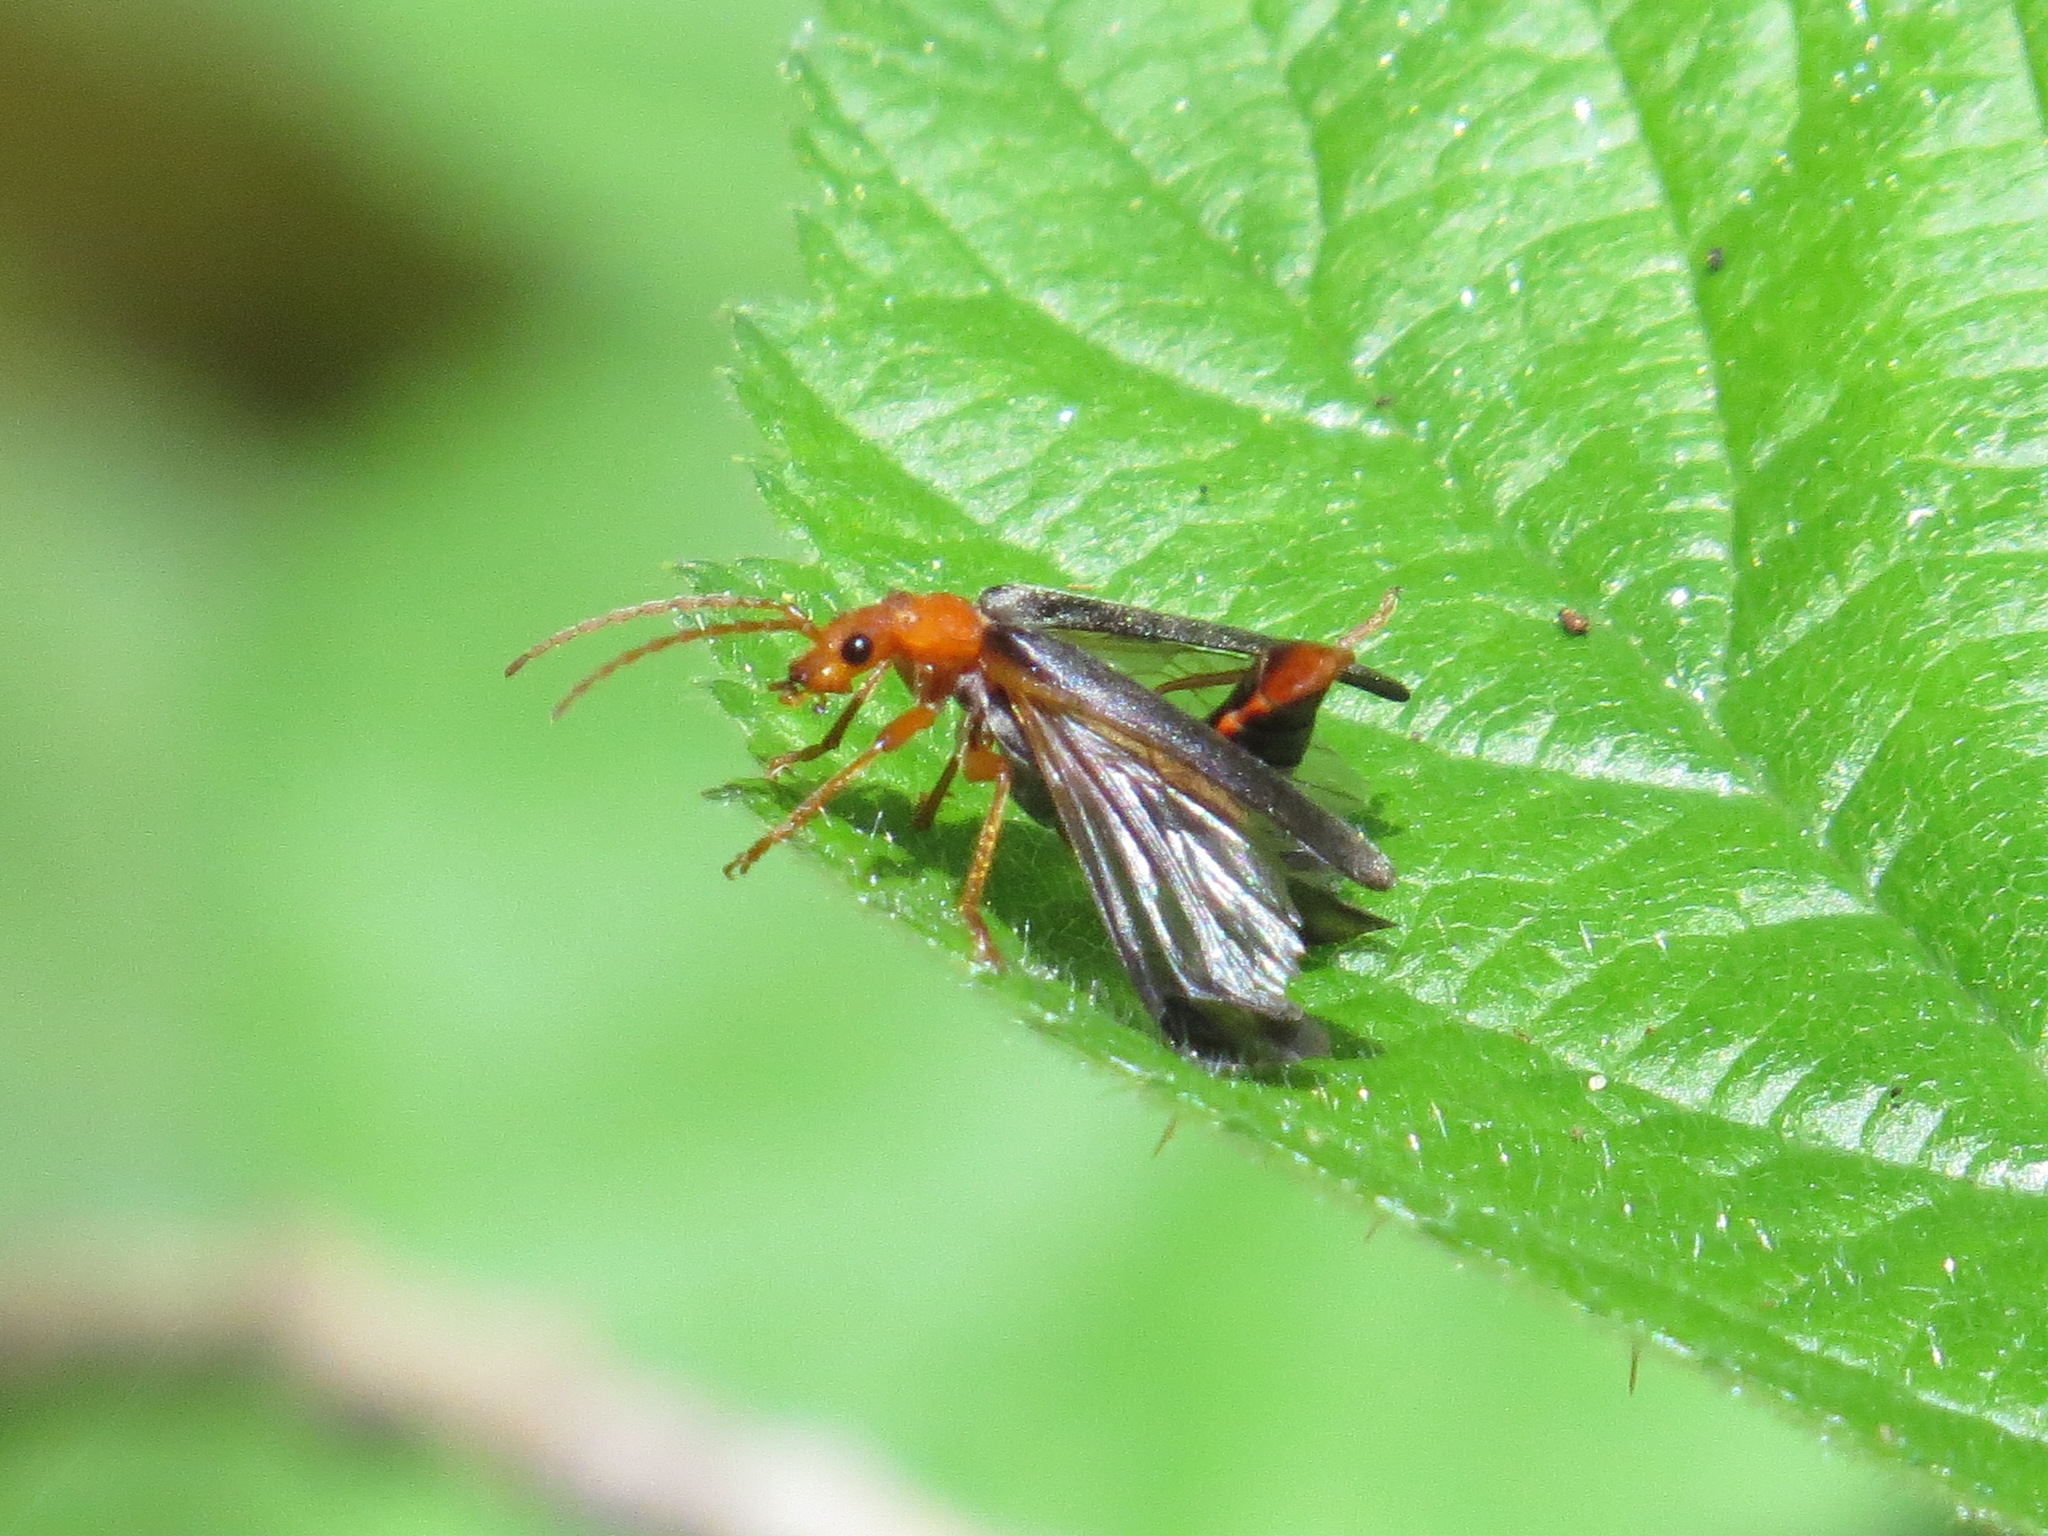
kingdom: Animalia
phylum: Arthropoda
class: Insecta
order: Coleoptera
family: Cantharidae
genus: Podabrus
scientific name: Podabrus pruinosus
